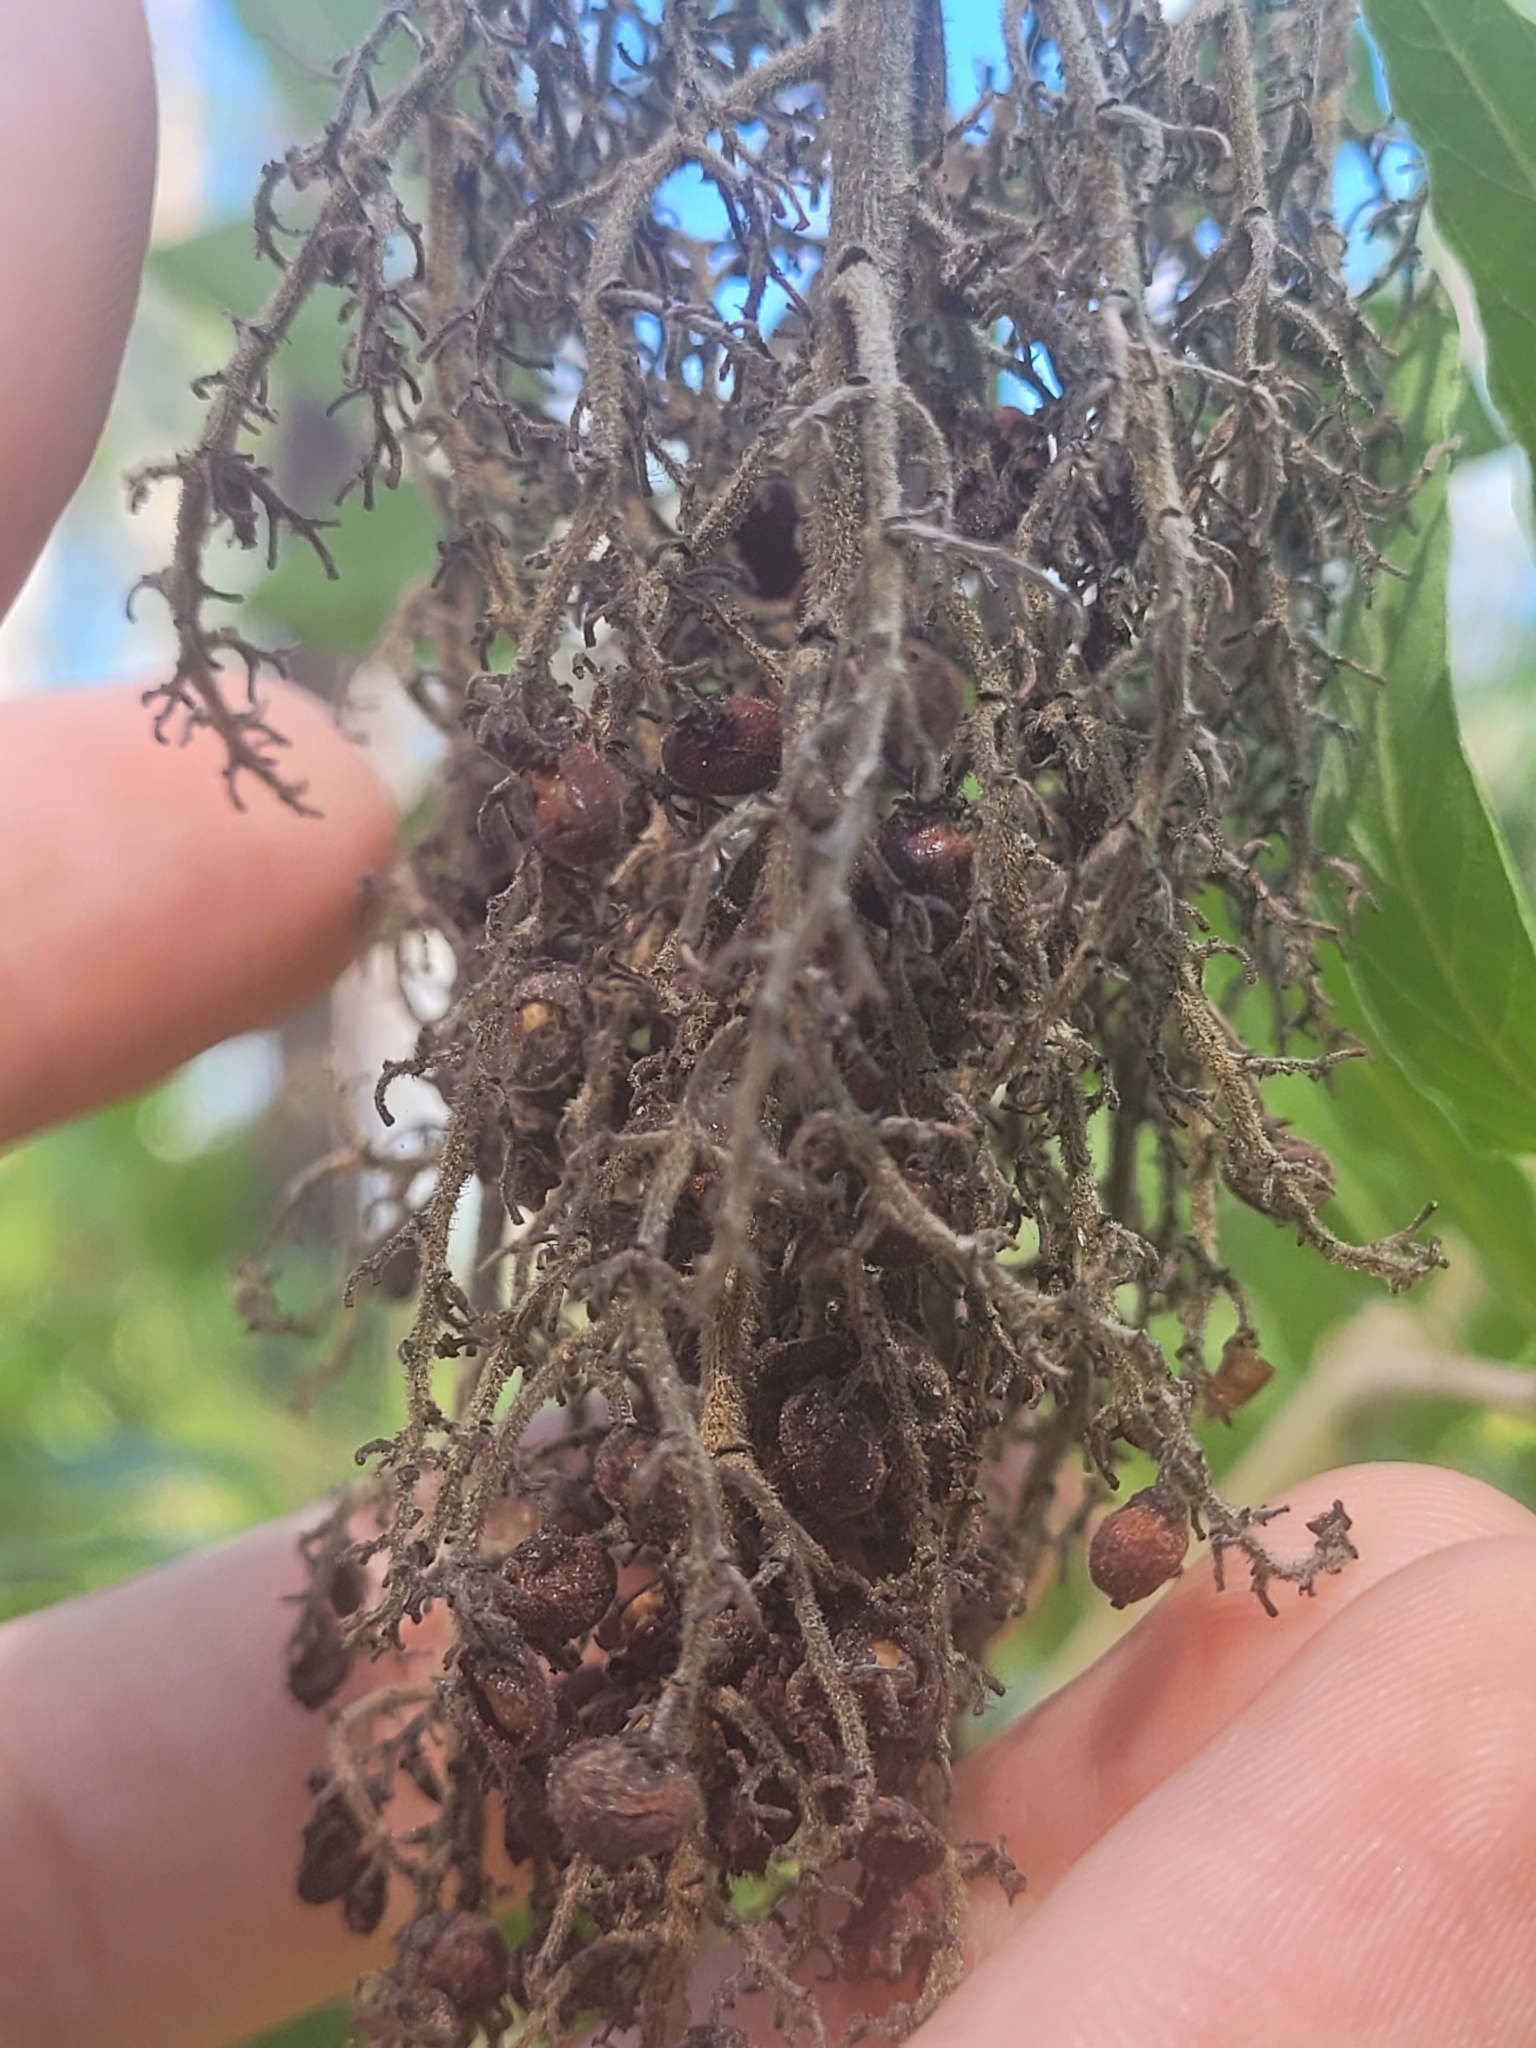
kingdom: Plantae
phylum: Tracheophyta
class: Magnoliopsida
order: Sapindales
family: Anacardiaceae
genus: Rhus
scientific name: Rhus copallina
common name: Shining sumac
